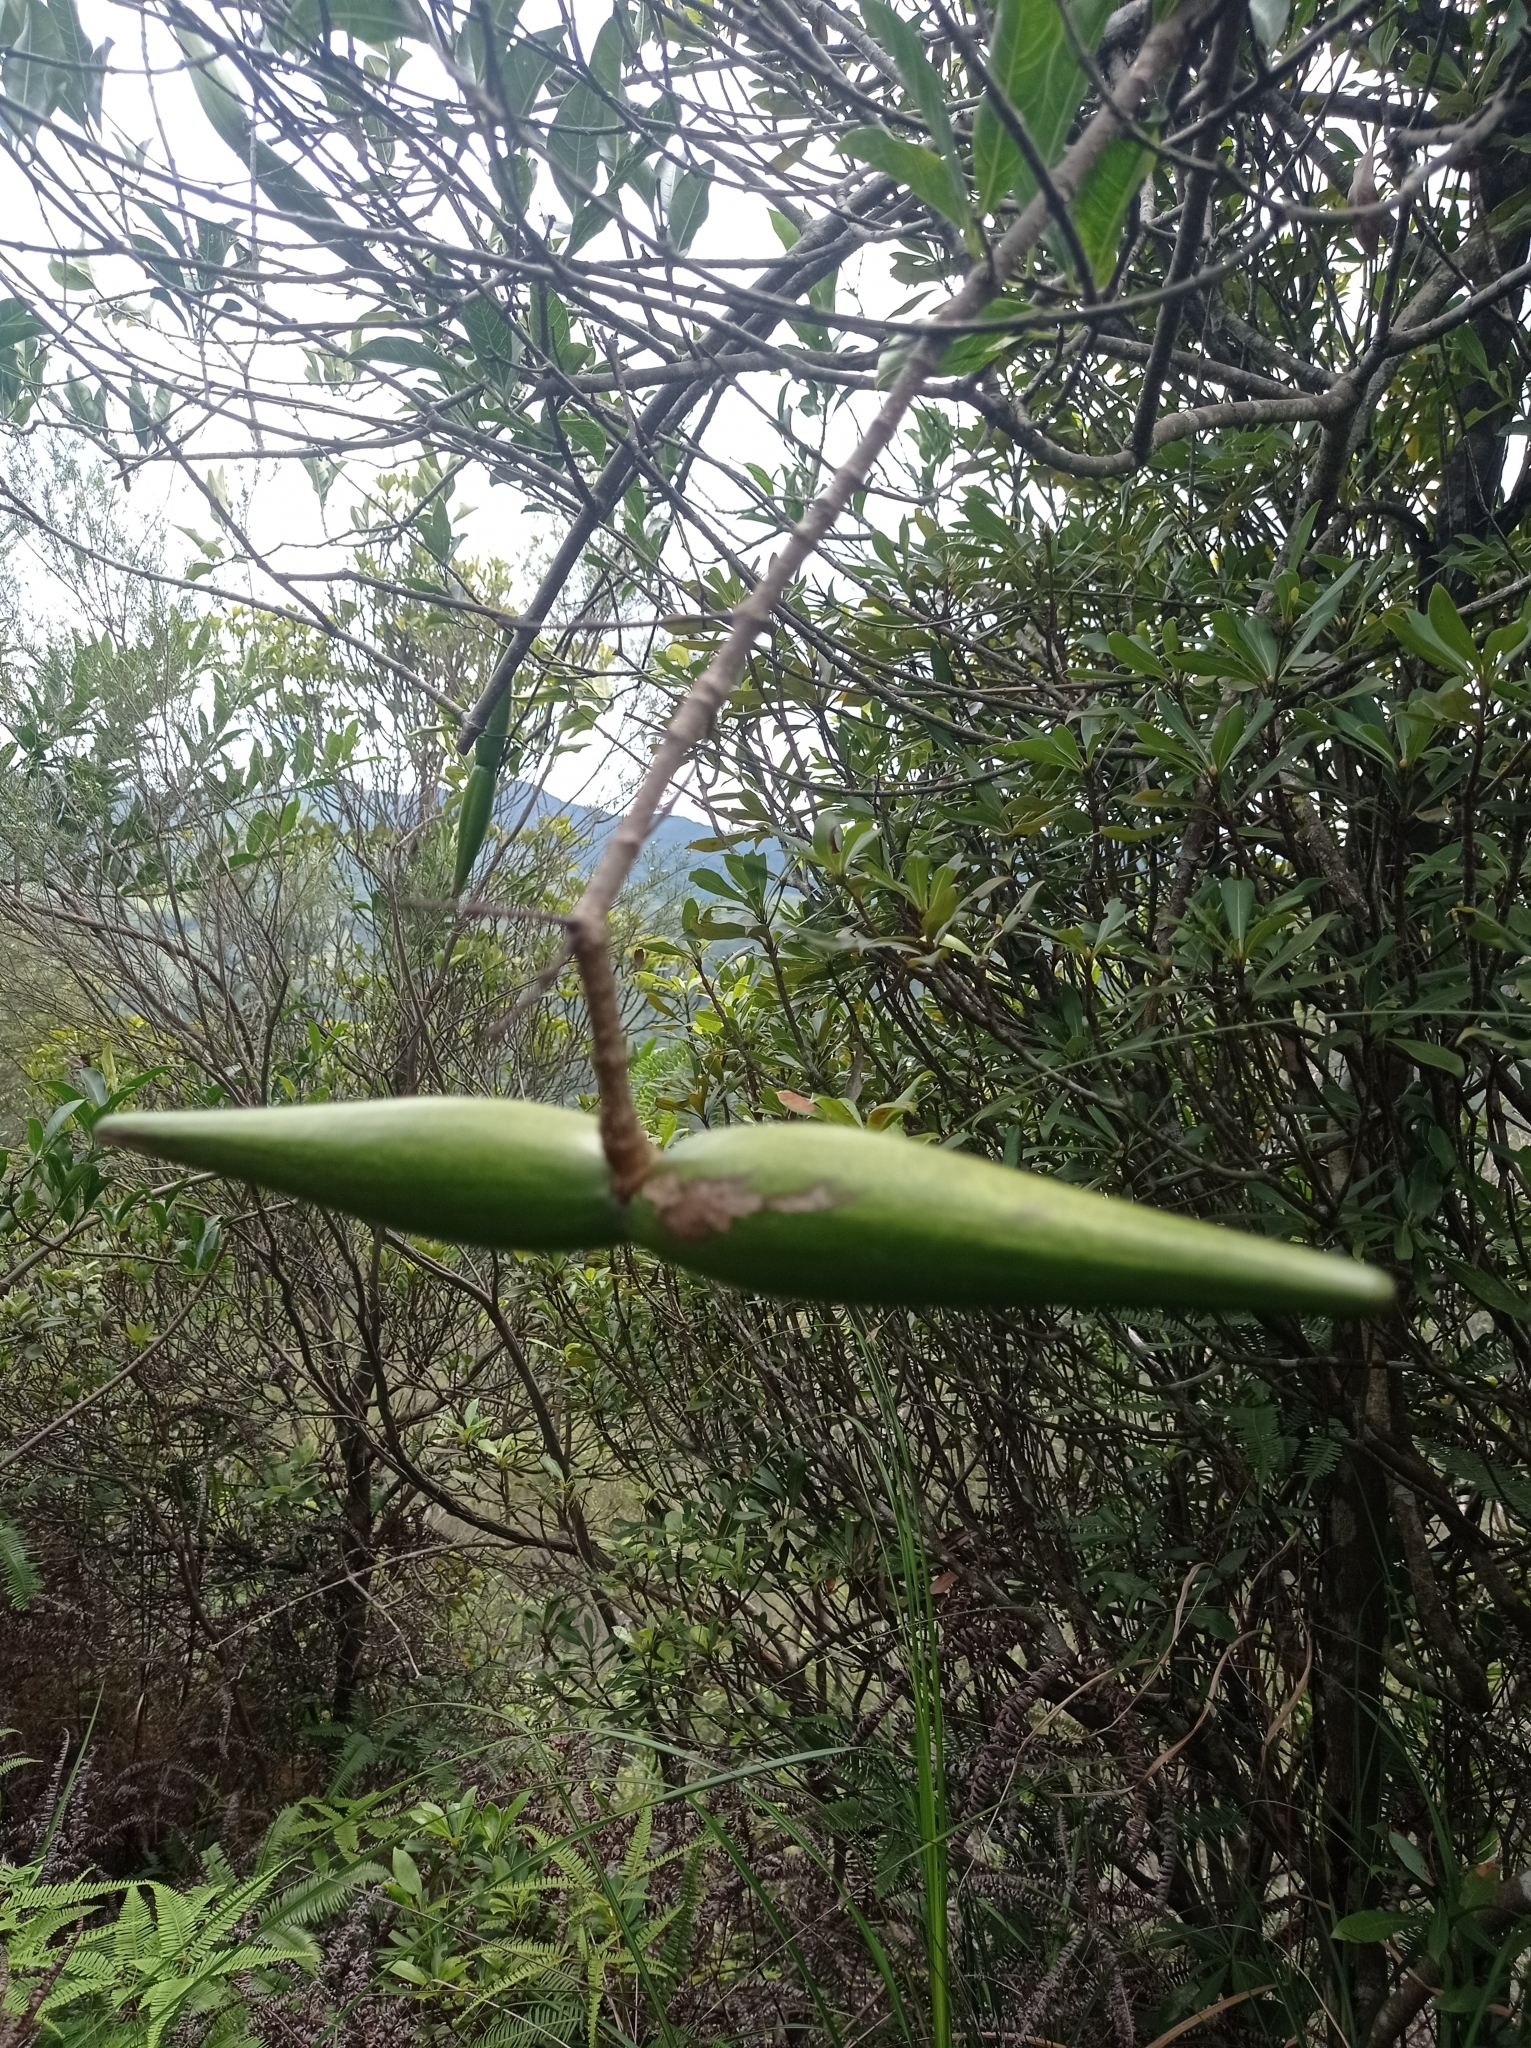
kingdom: Plantae
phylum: Tracheophyta
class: Magnoliopsida
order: Gentianales
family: Apocynaceae
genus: Strophanthus
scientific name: Strophanthus divaricatus
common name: Goat-horns
